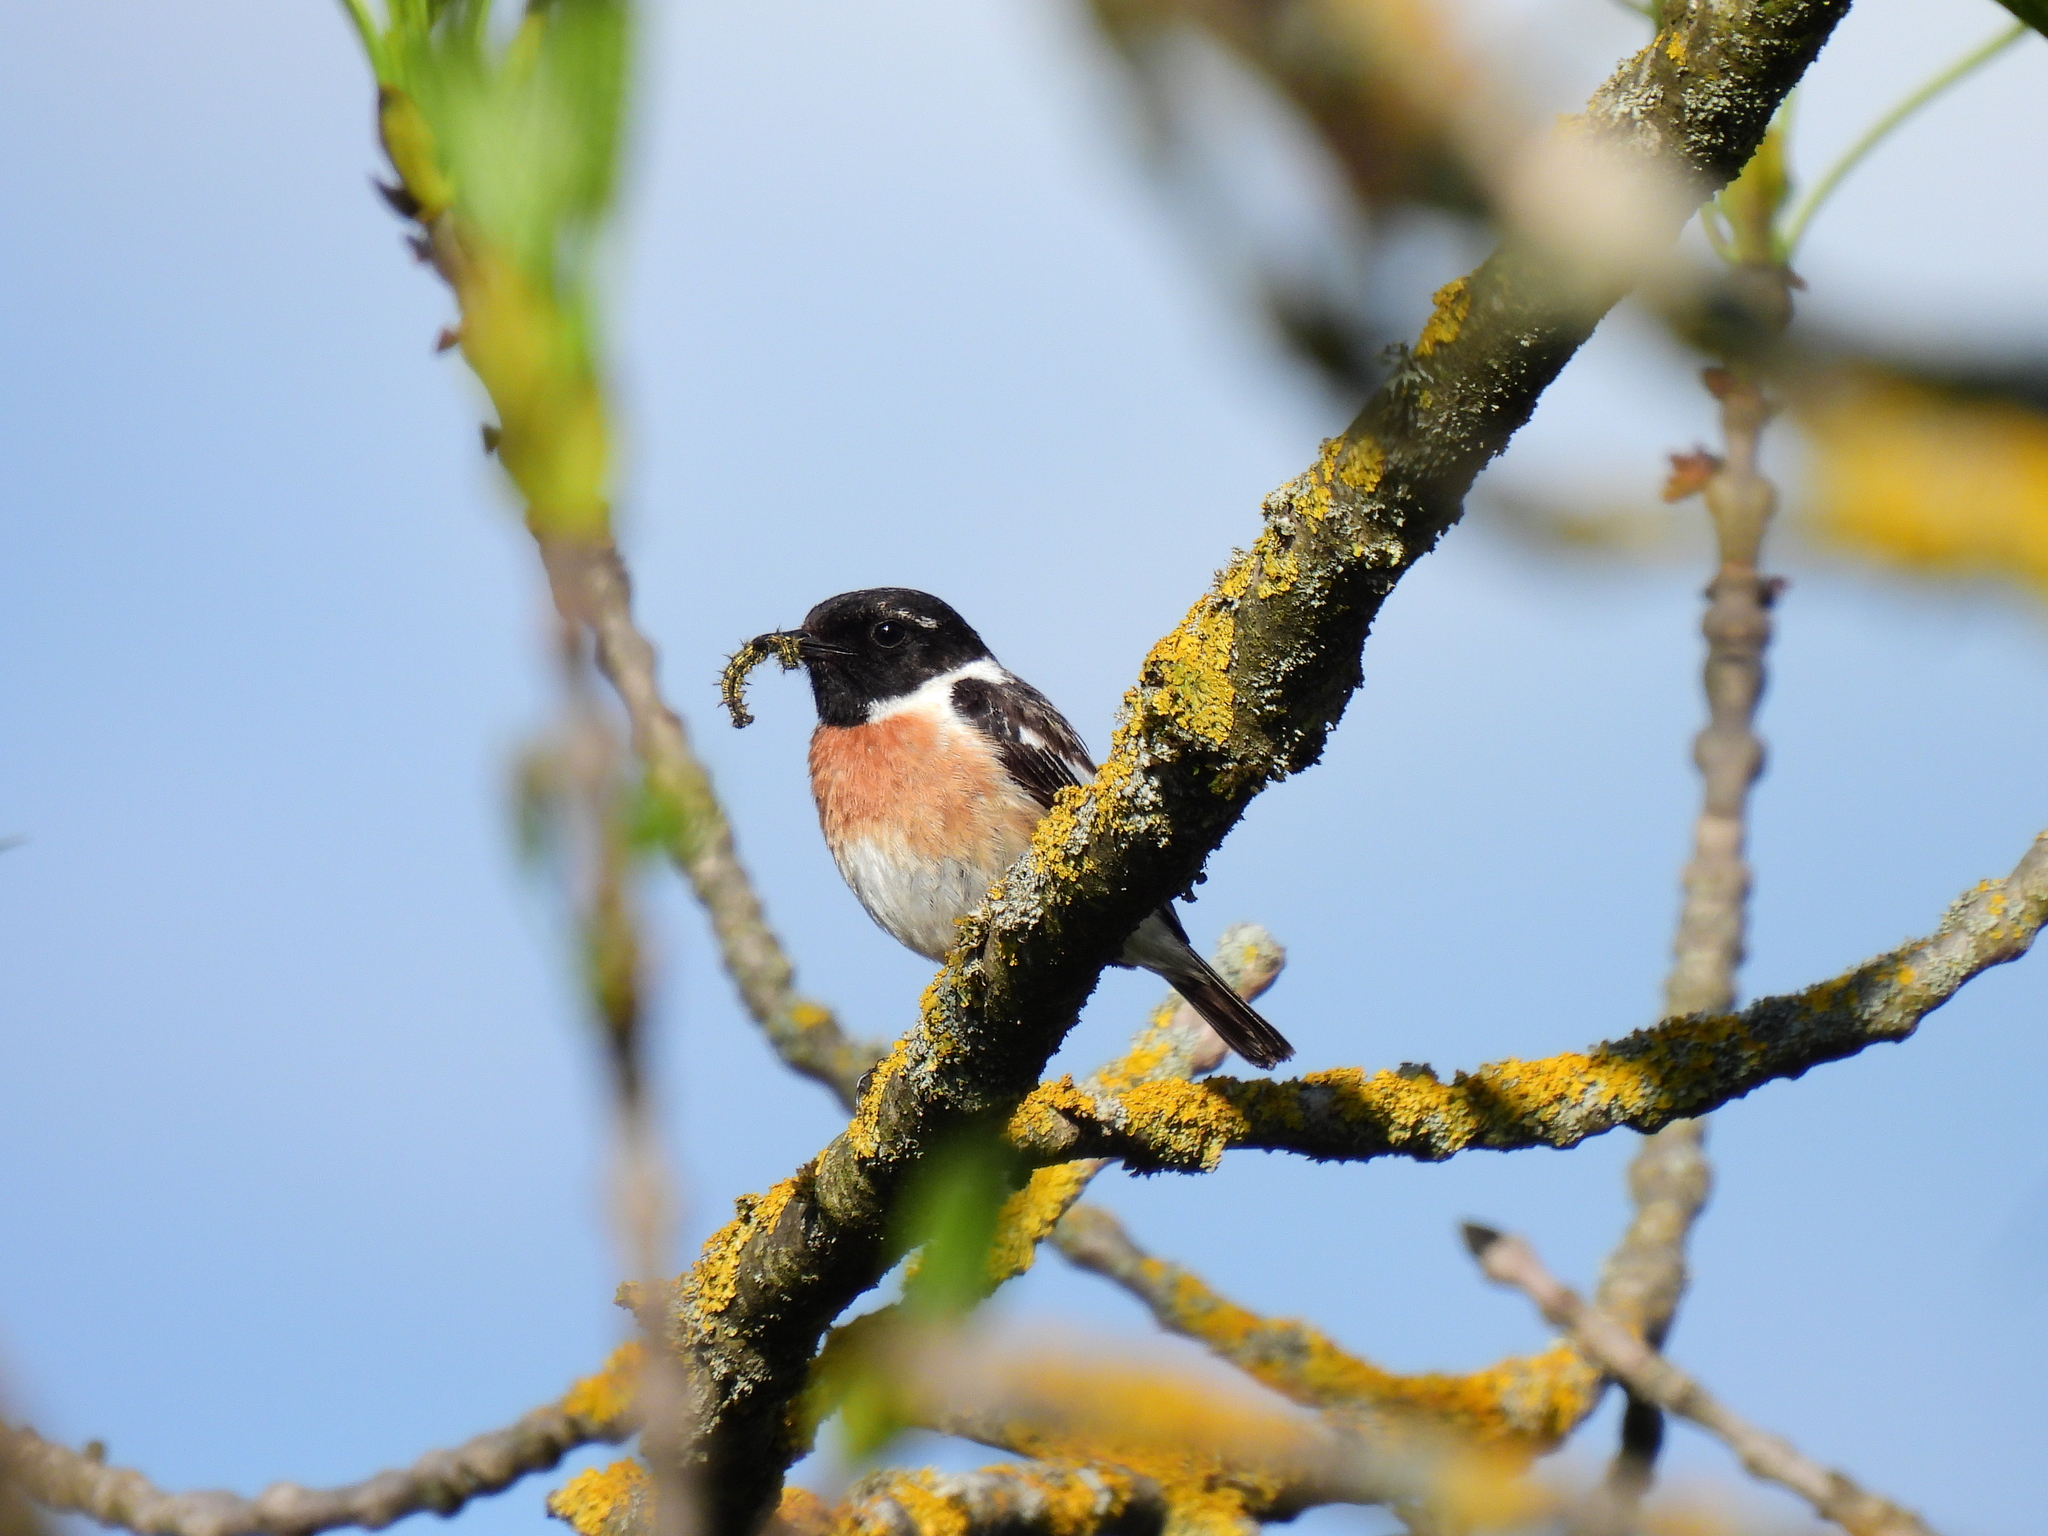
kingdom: Animalia
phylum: Chordata
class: Aves
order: Passeriformes
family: Muscicapidae
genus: Saxicola
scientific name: Saxicola rubicola
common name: European stonechat
